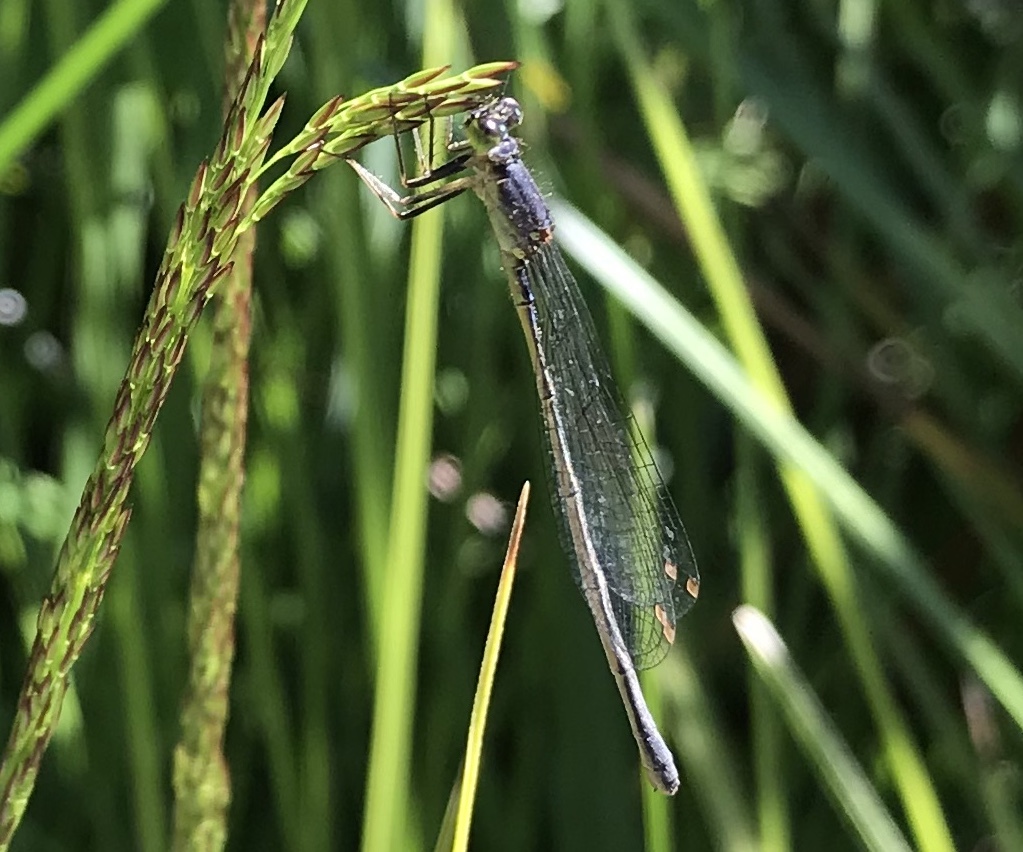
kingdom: Animalia
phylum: Arthropoda
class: Insecta
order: Odonata
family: Coenagrionidae
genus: Ischnura
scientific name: Ischnura cervula
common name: Pacific forktail
